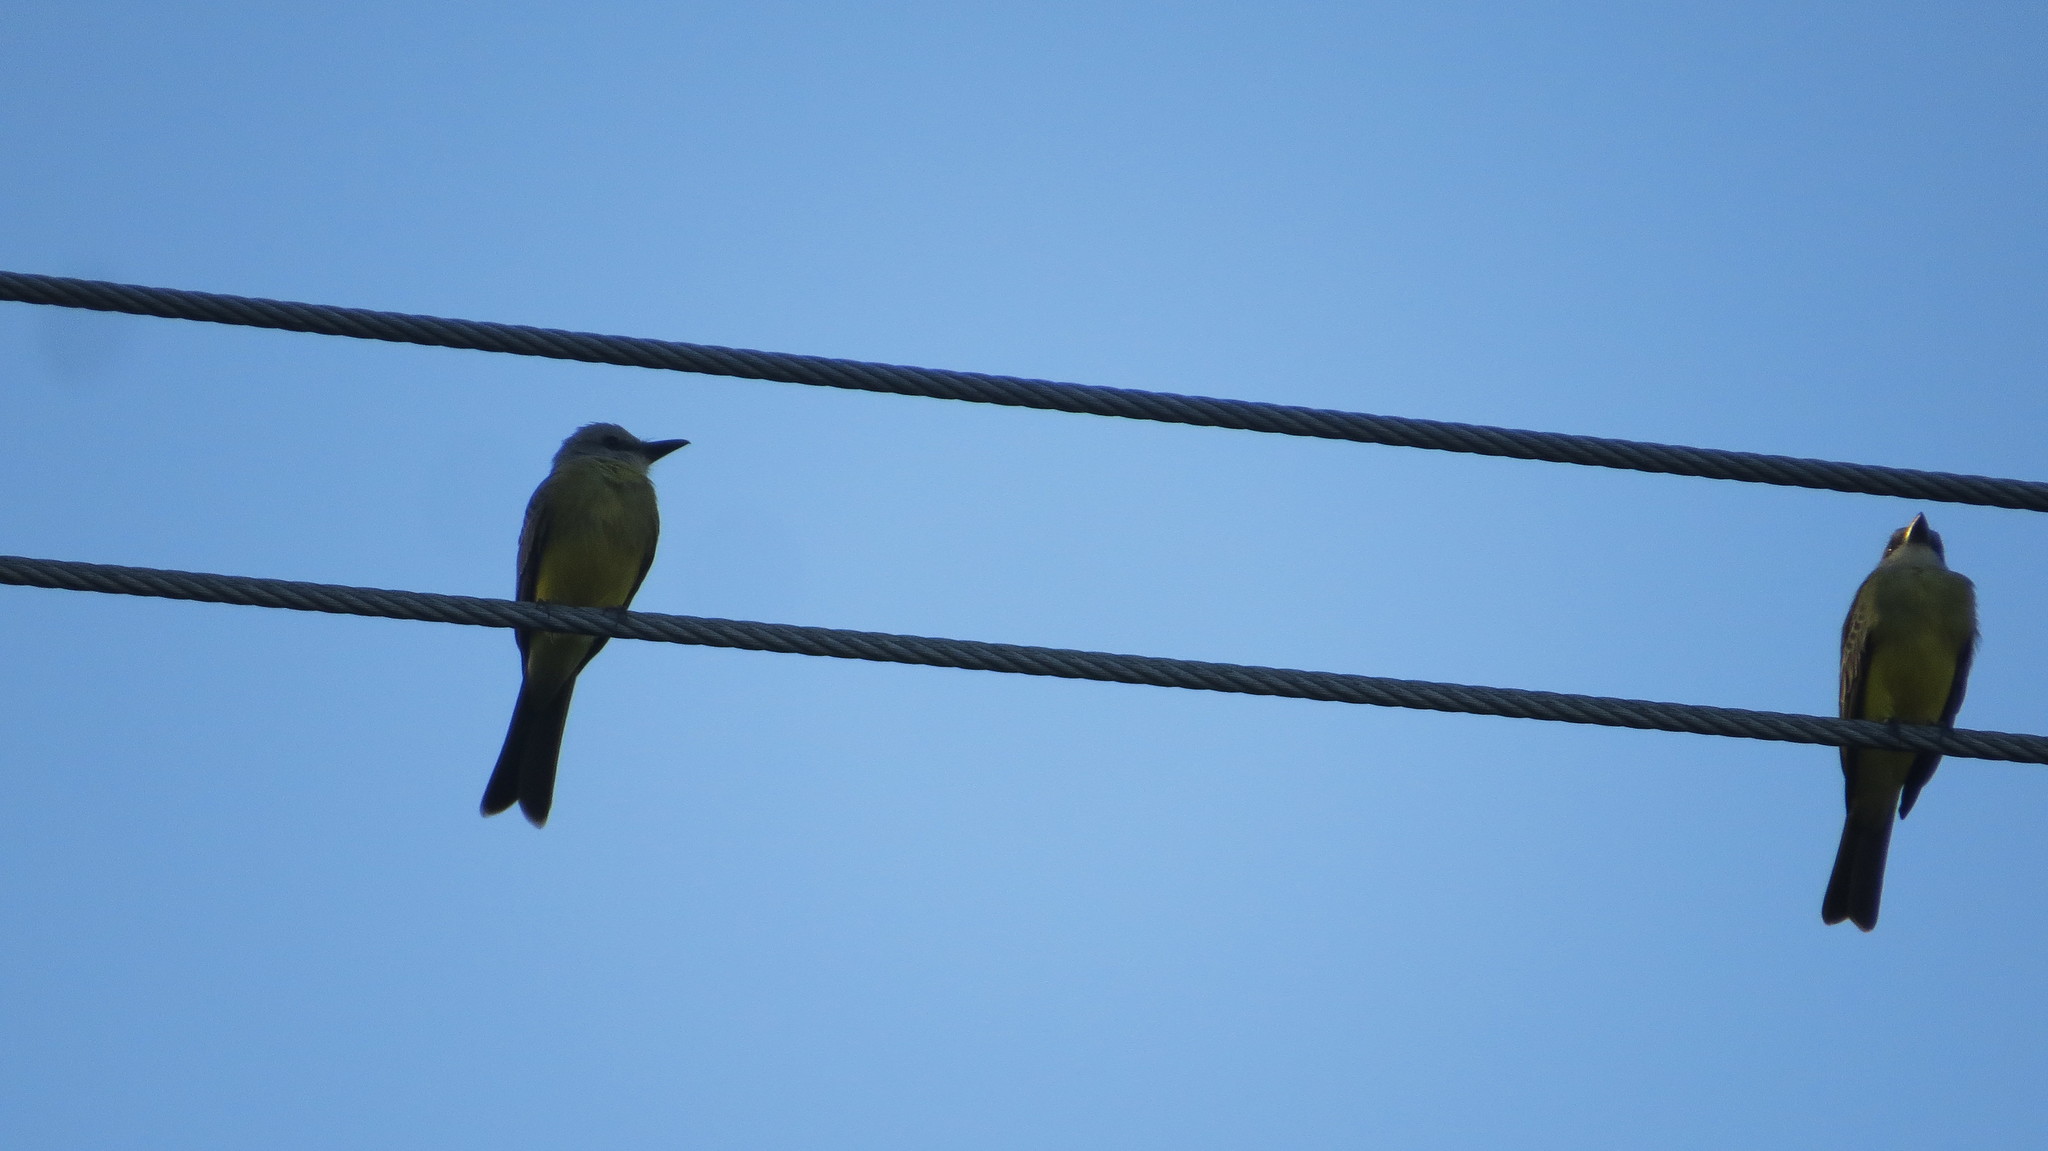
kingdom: Animalia
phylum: Chordata
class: Aves
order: Passeriformes
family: Tyrannidae
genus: Tyrannus
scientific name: Tyrannus melancholicus
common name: Tropical kingbird
